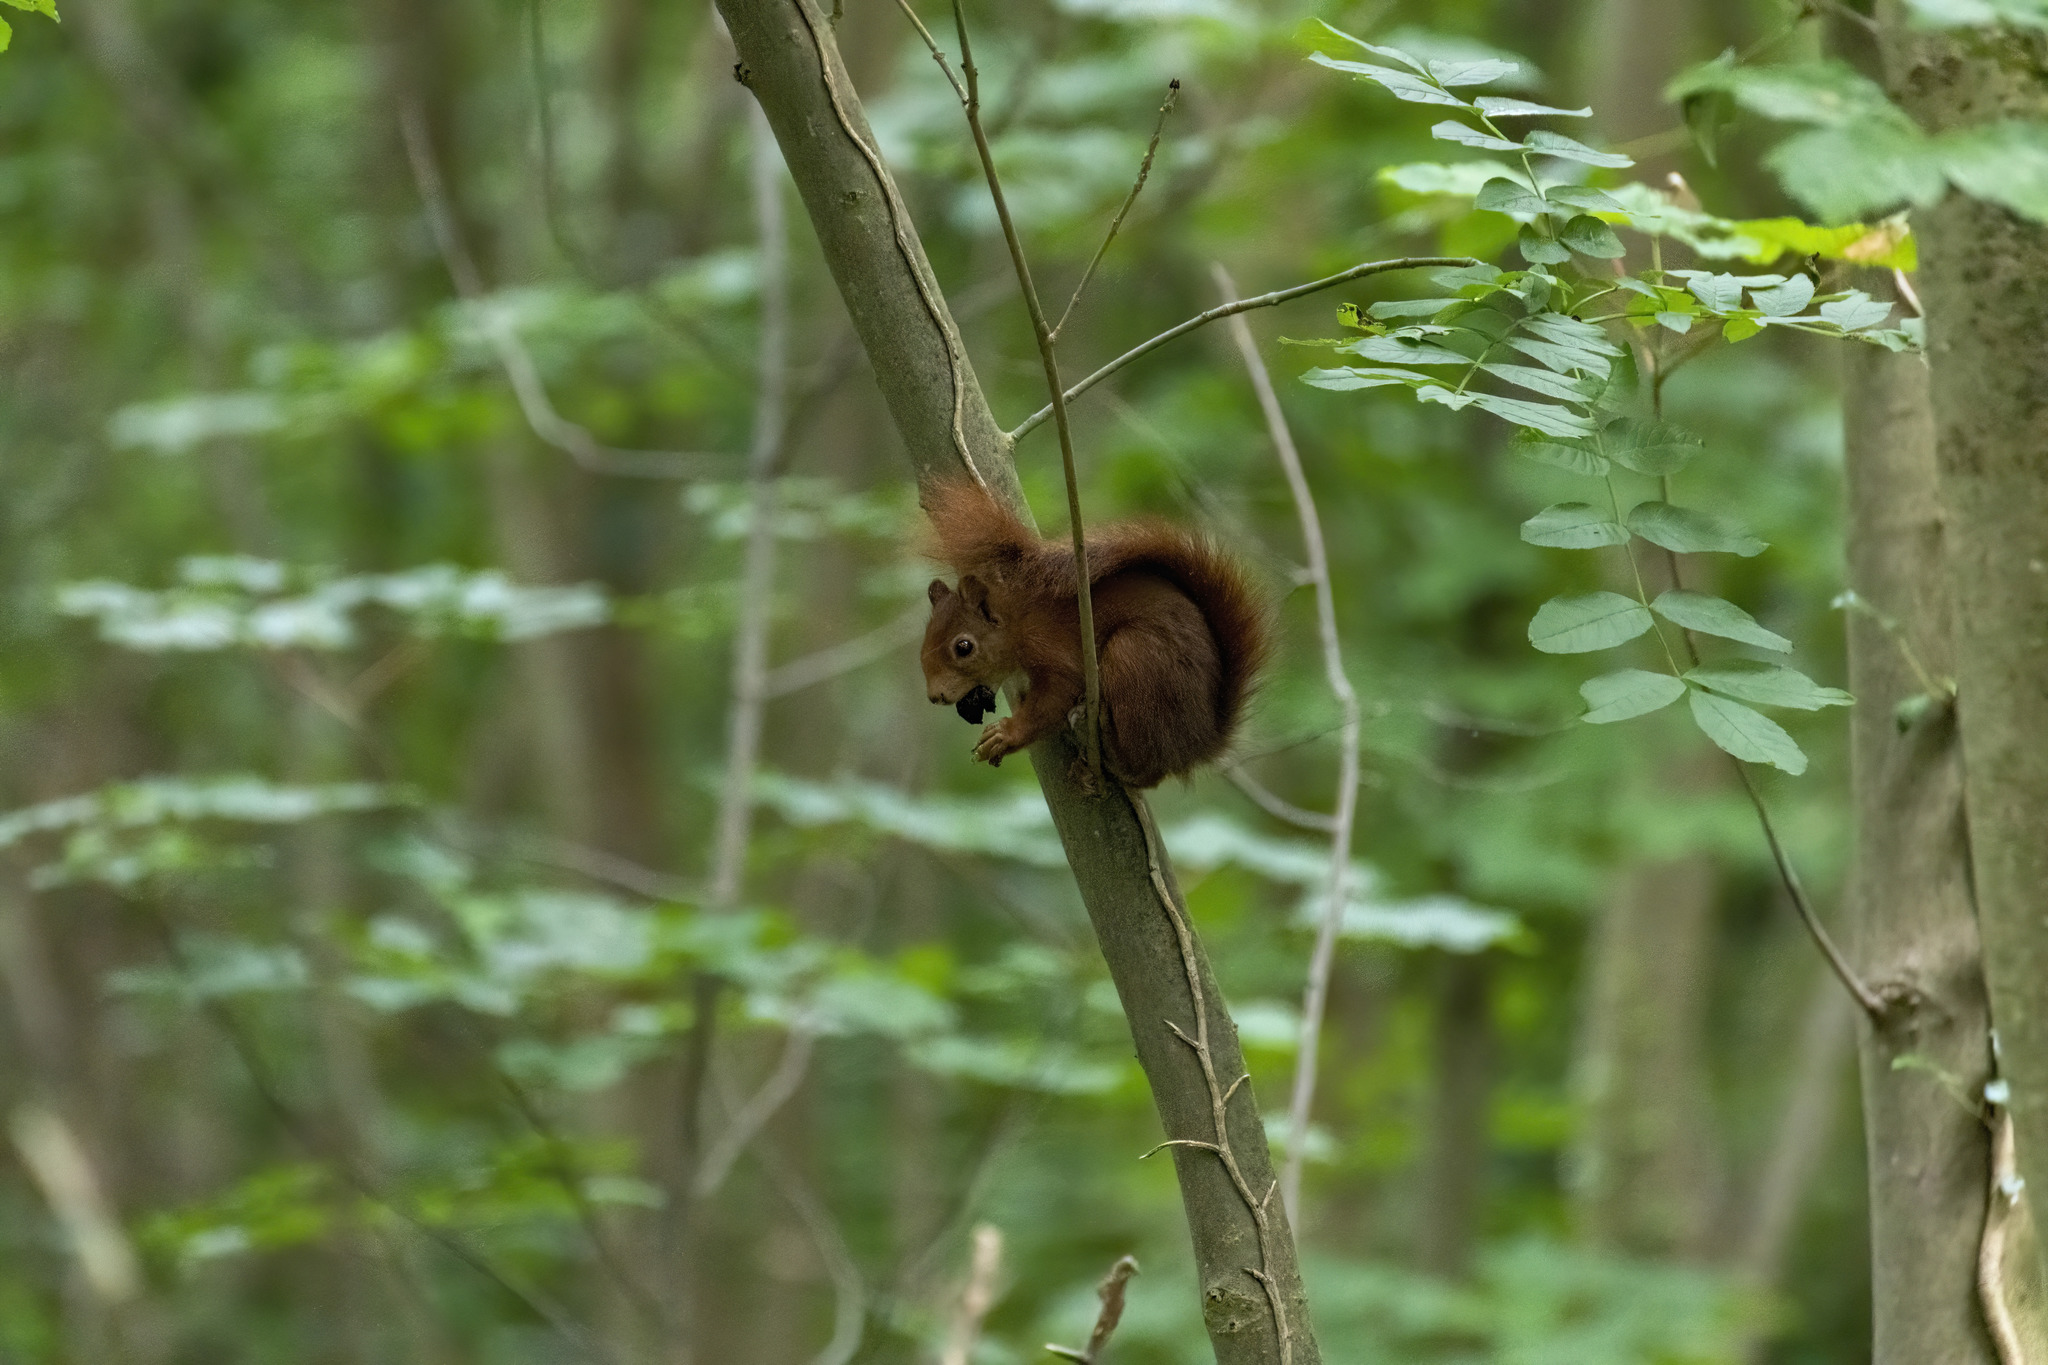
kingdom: Animalia
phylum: Chordata
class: Mammalia
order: Rodentia
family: Sciuridae
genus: Sciurus
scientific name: Sciurus vulgaris
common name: Eurasian red squirrel
